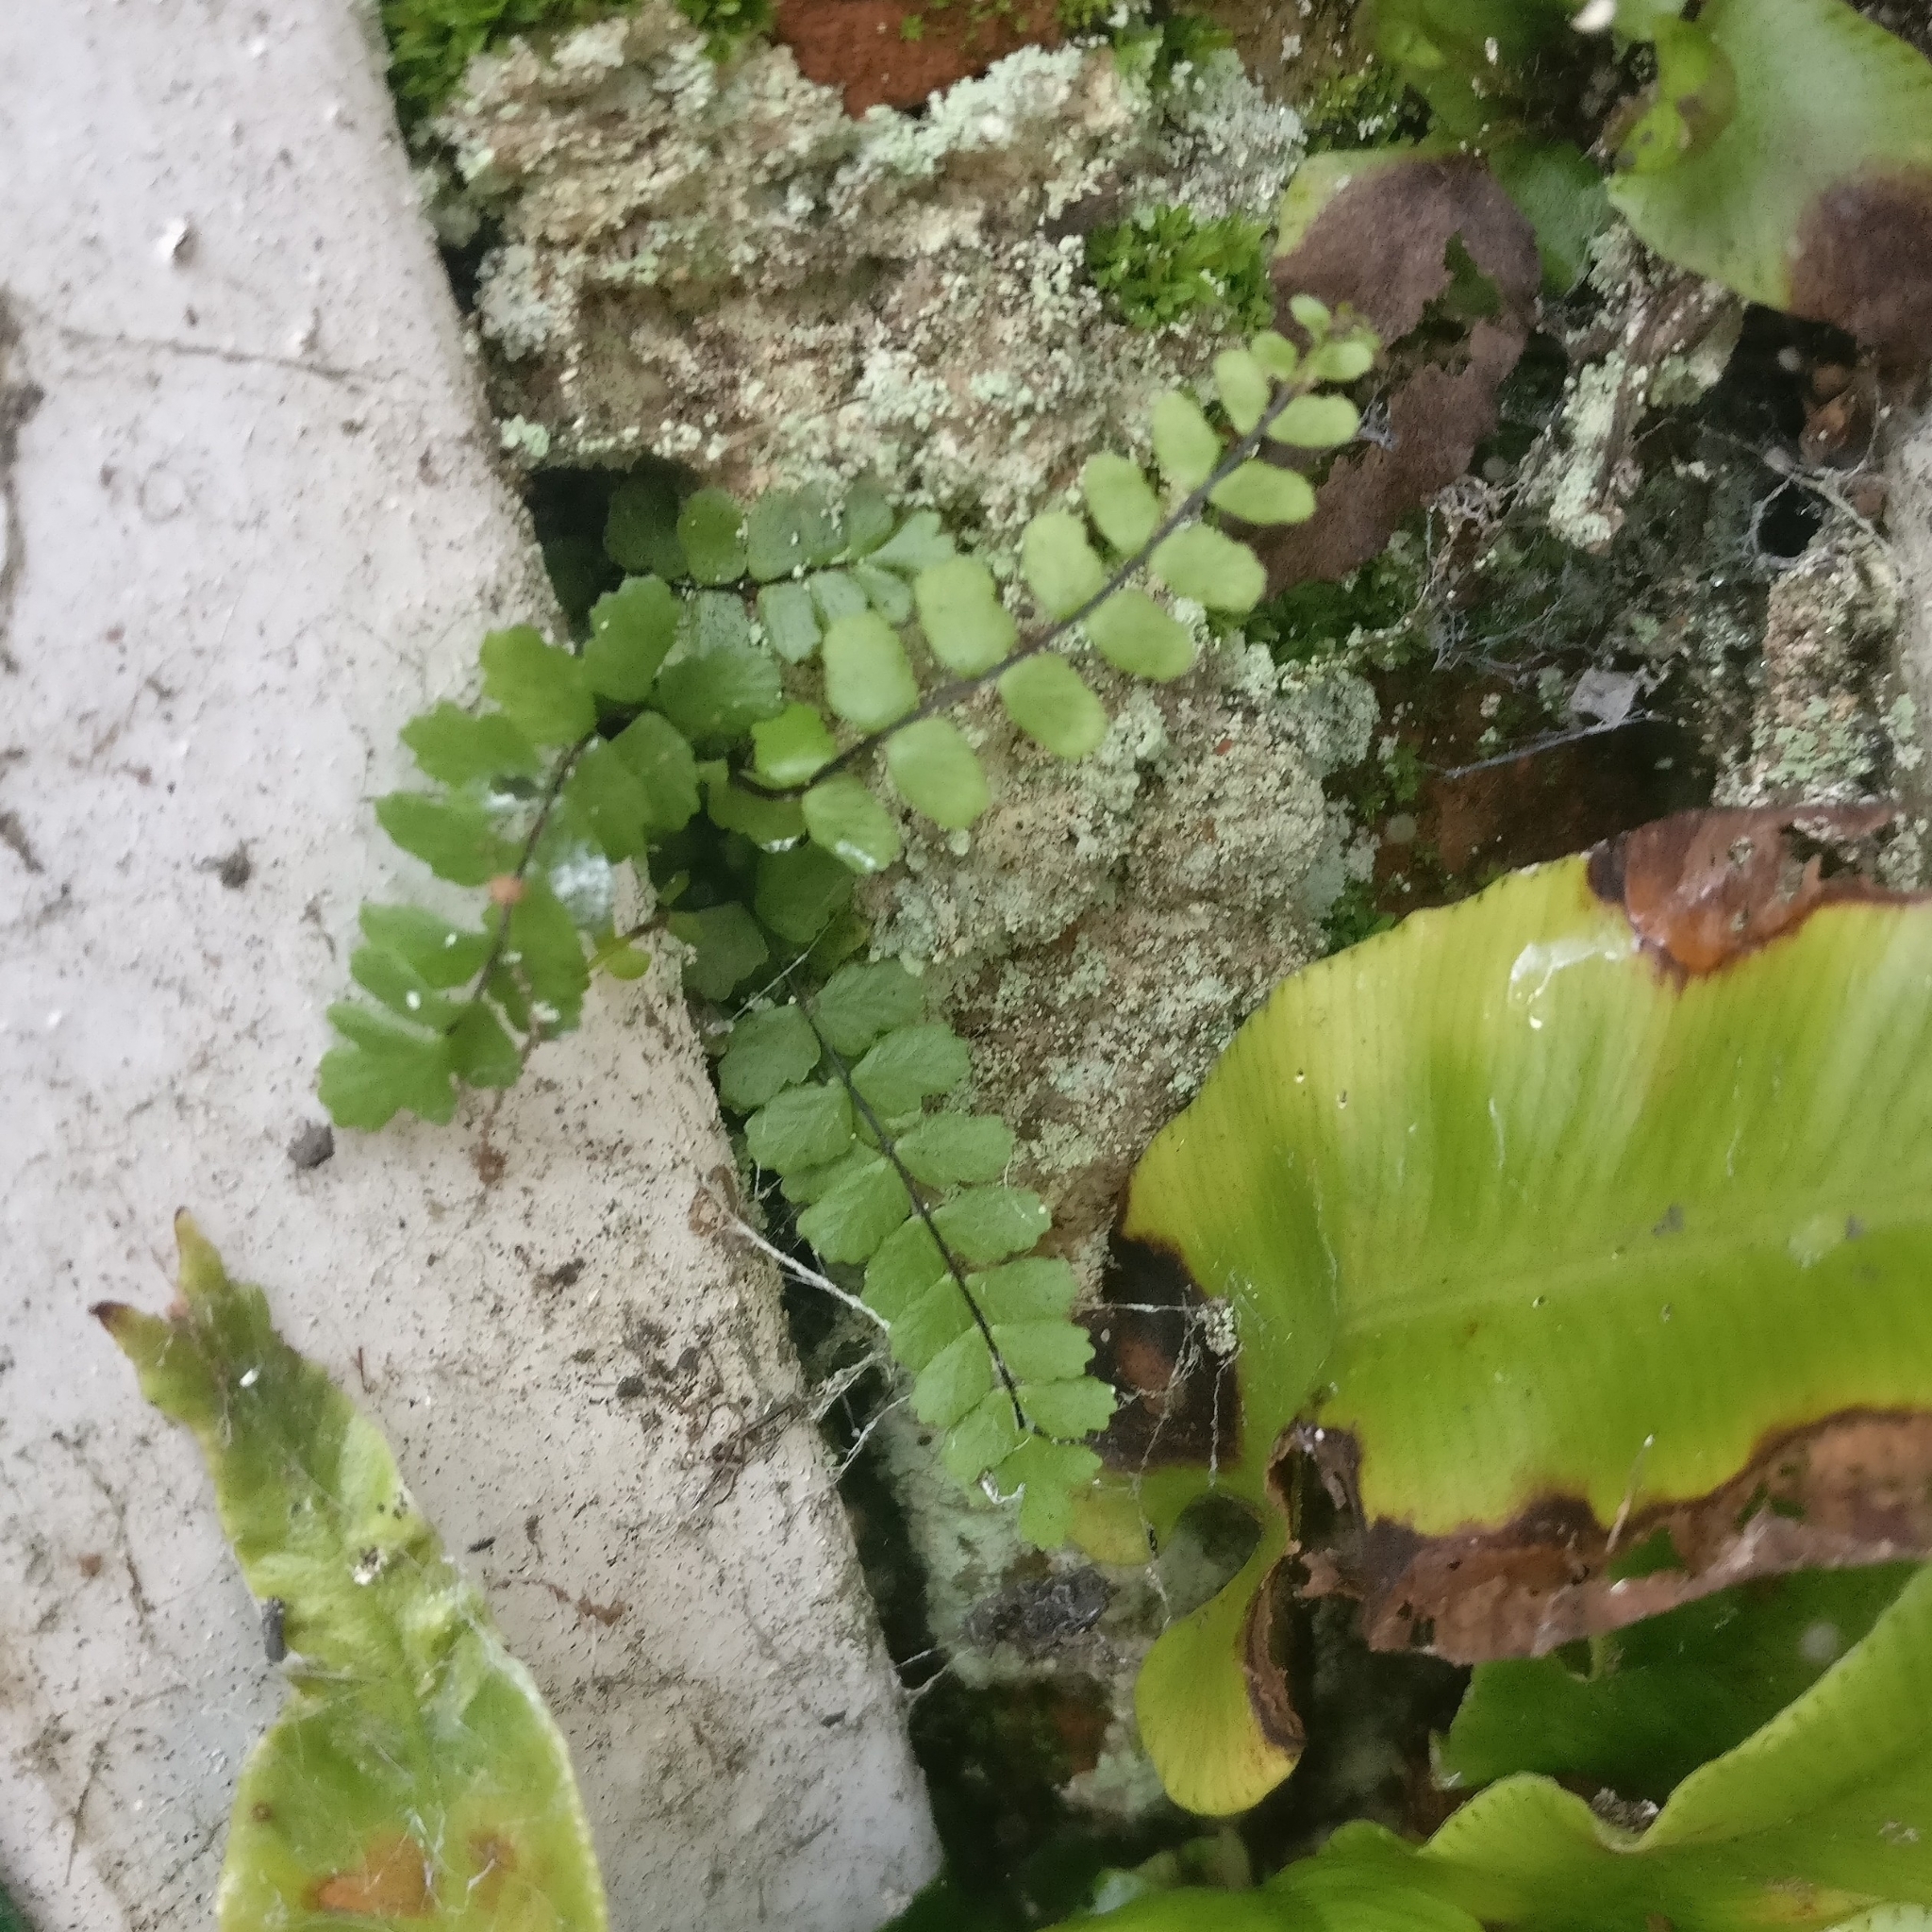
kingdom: Plantae
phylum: Tracheophyta
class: Polypodiopsida
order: Polypodiales
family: Aspleniaceae
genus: Asplenium
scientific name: Asplenium trichomanes
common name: Maidenhair spleenwort
